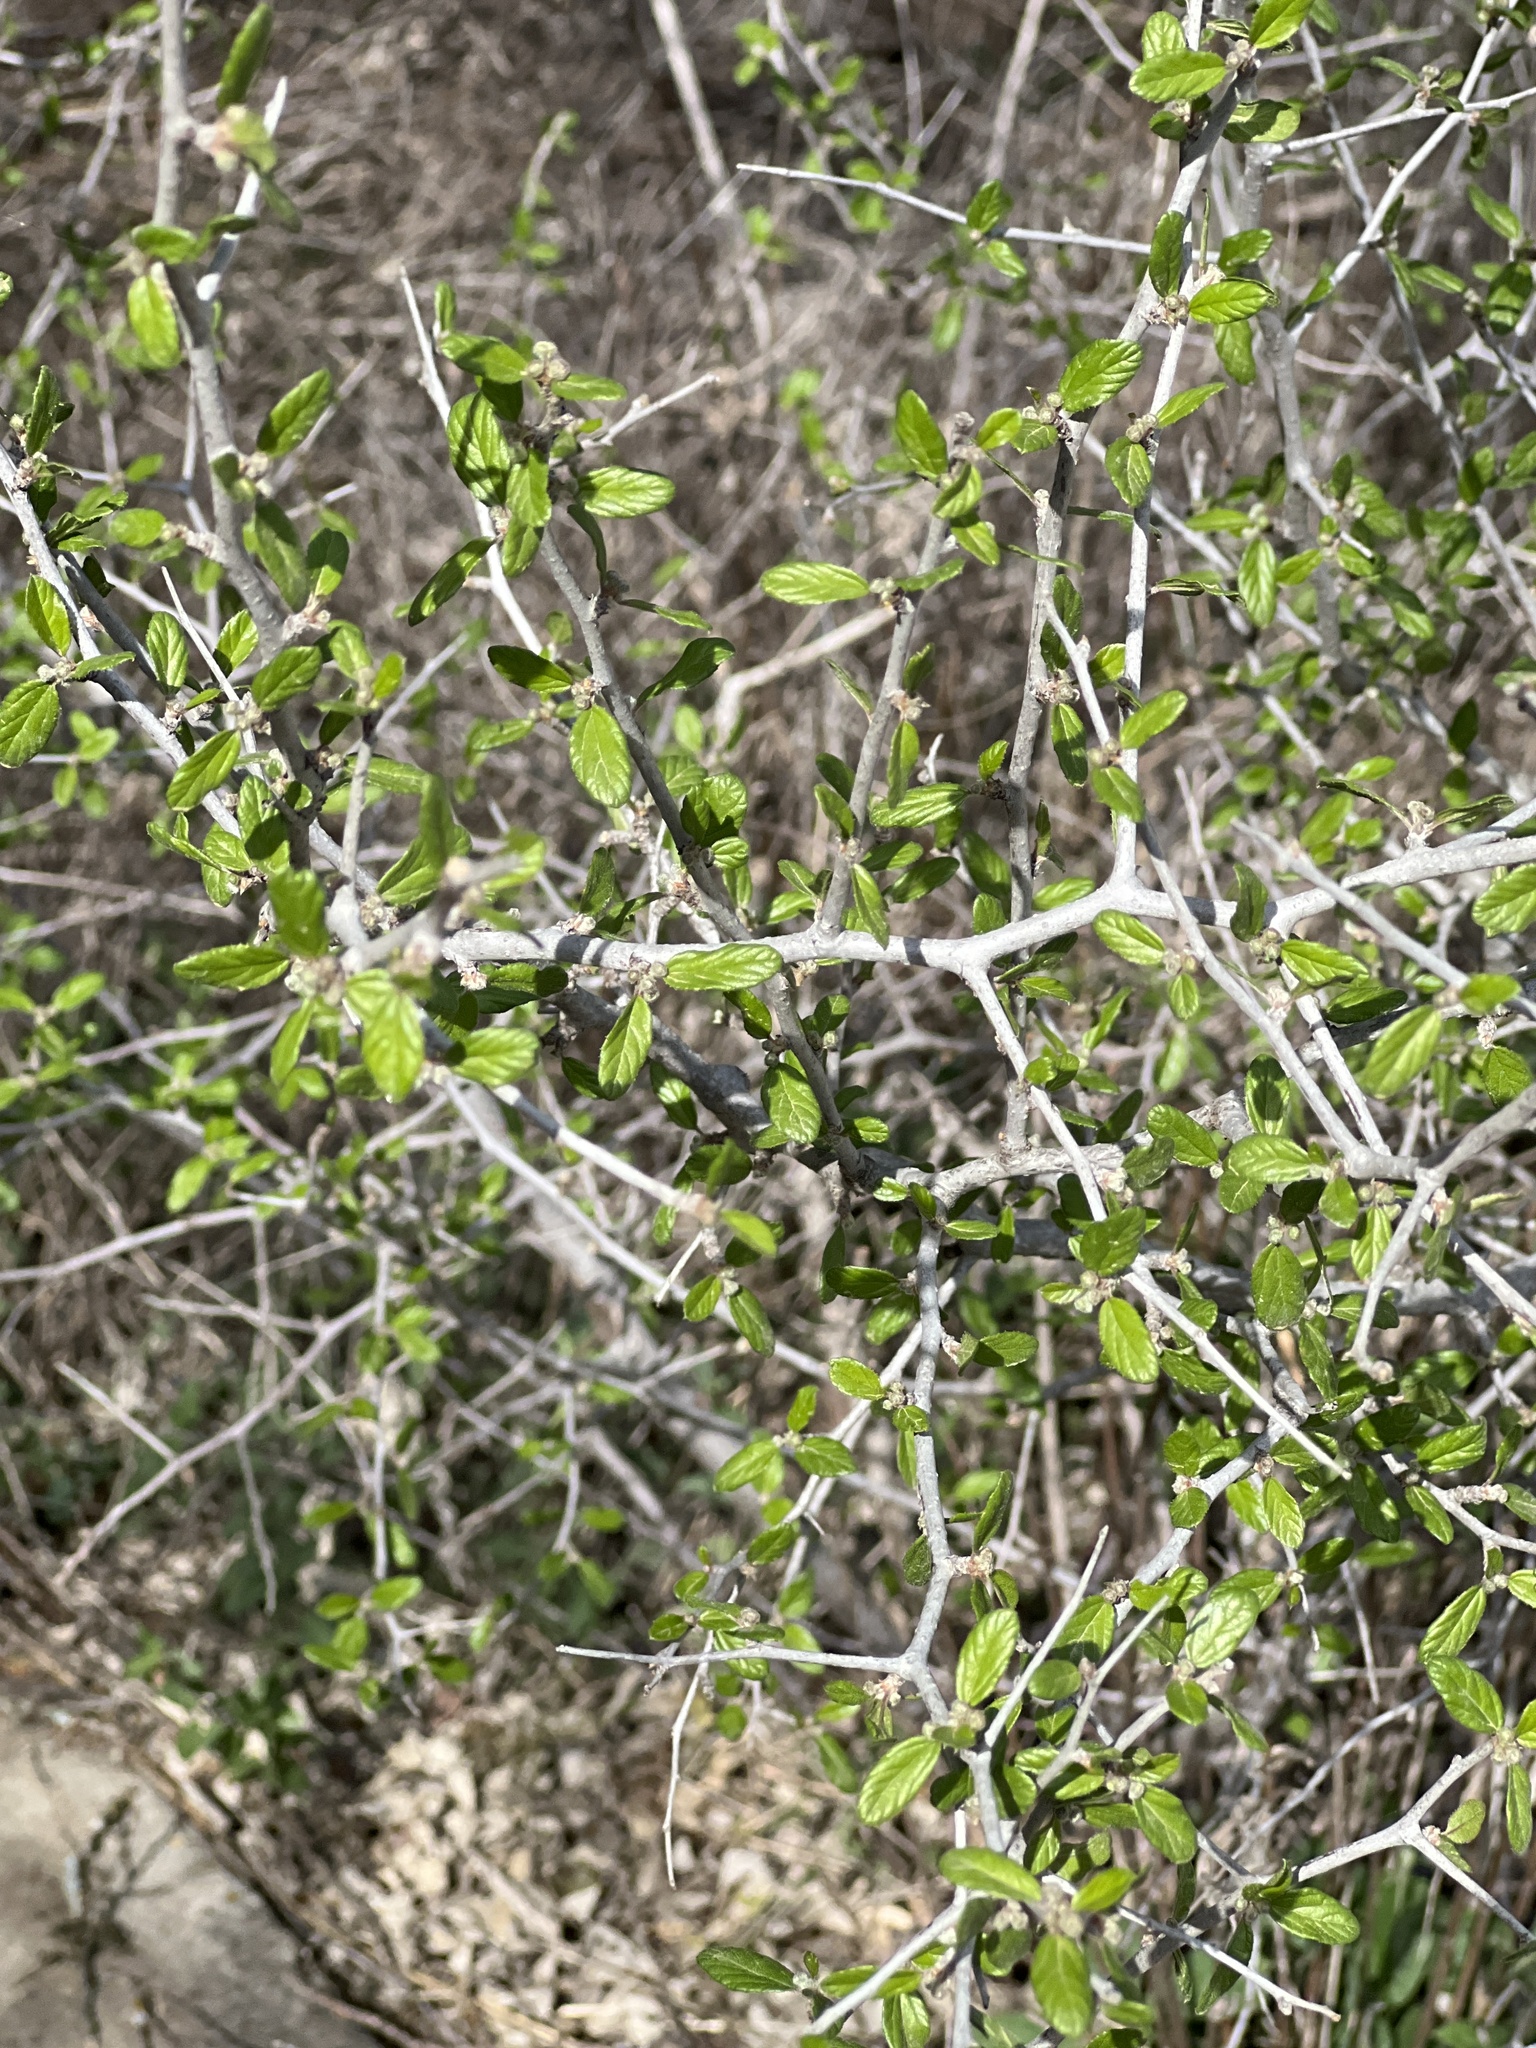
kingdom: Plantae
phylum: Tracheophyta
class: Magnoliopsida
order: Rosales
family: Rhamnaceae
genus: Colubrina
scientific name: Colubrina texensis
